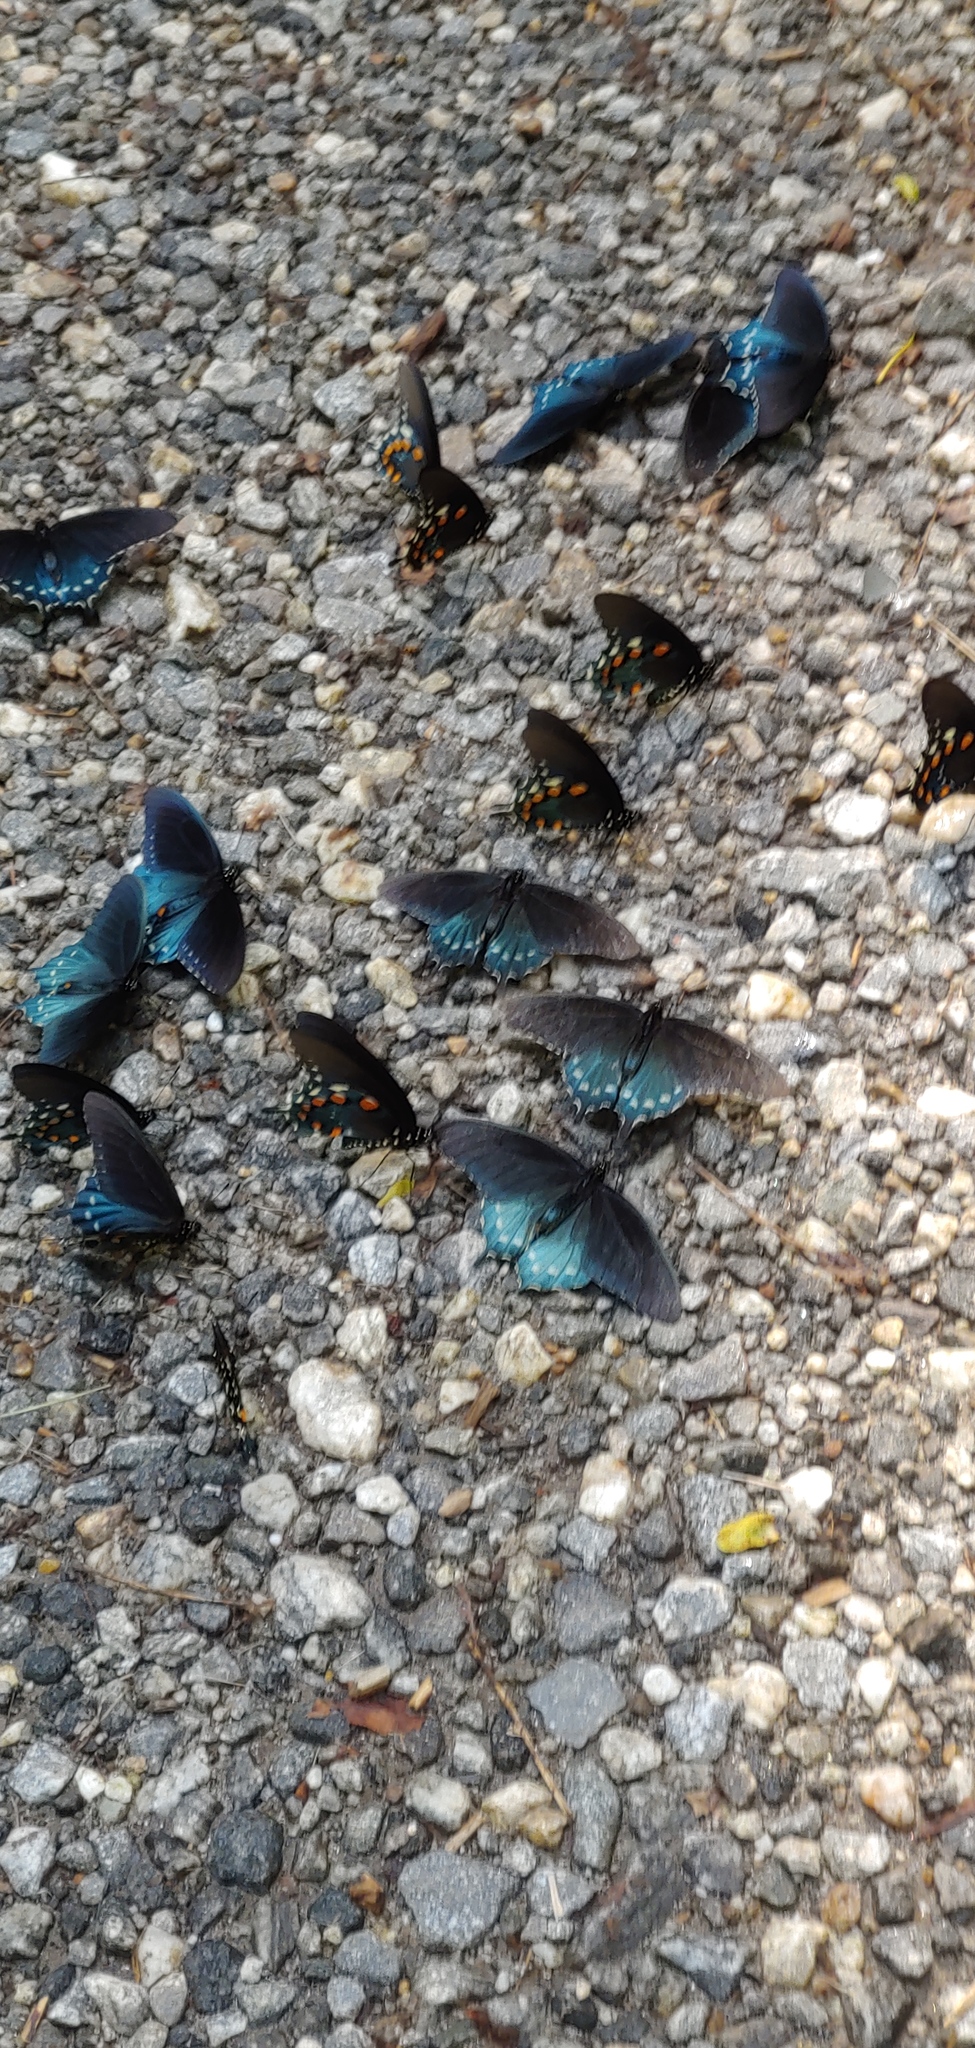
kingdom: Animalia
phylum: Arthropoda
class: Insecta
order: Lepidoptera
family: Papilionidae
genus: Battus
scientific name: Battus philenor
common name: Pipevine swallowtail
